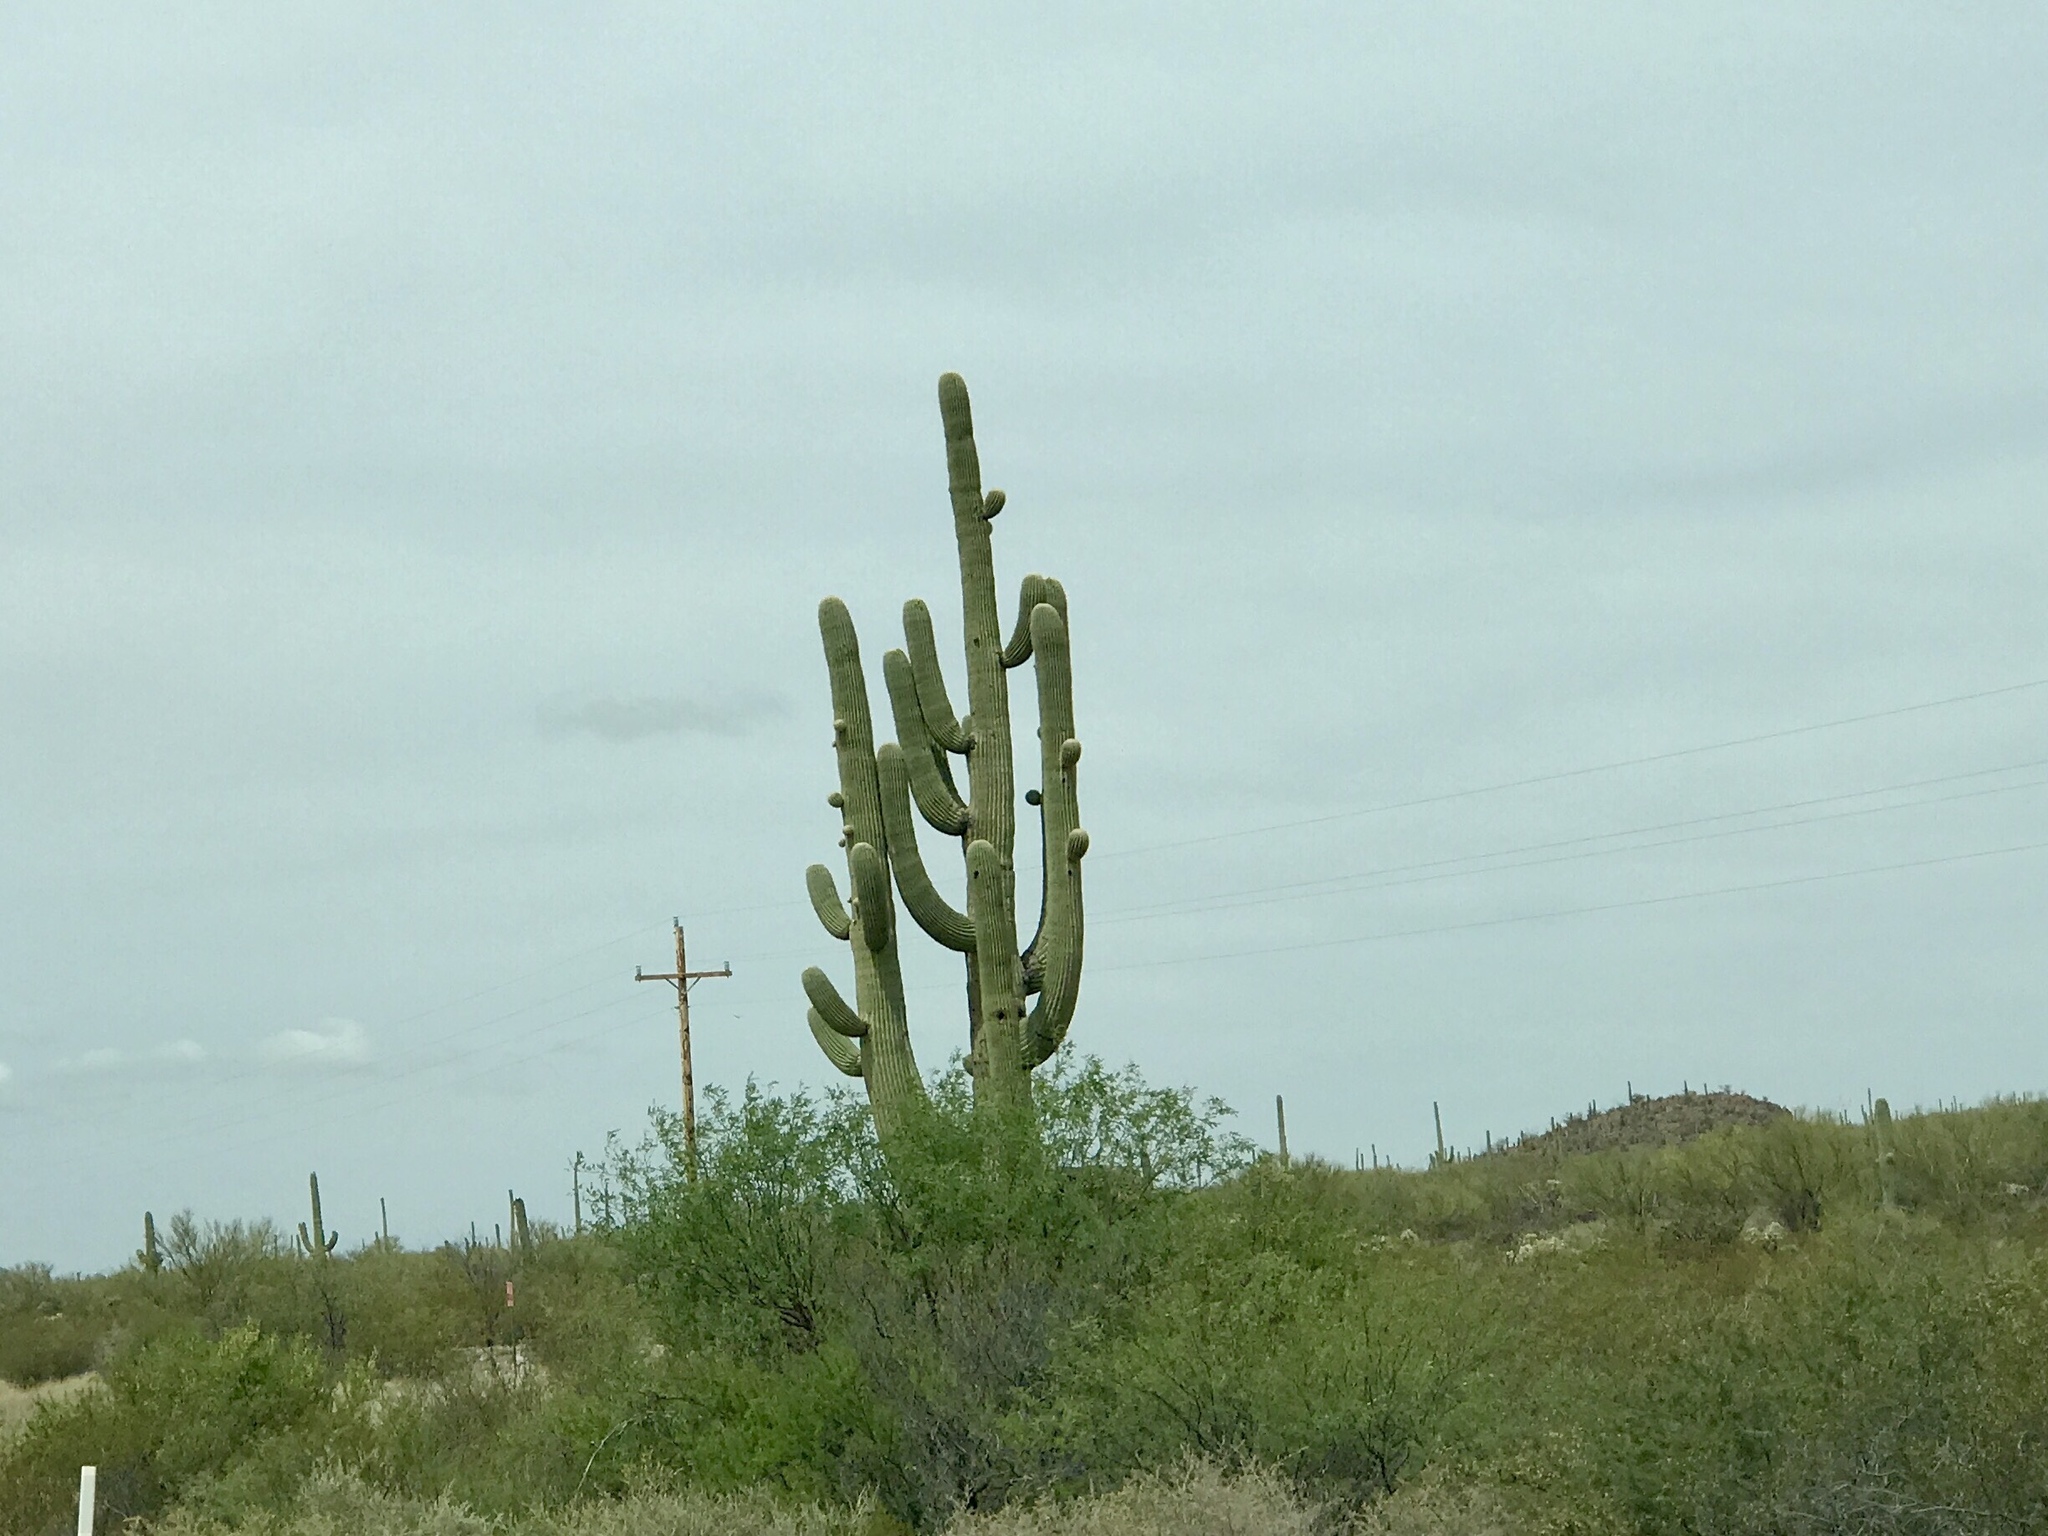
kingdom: Plantae
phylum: Tracheophyta
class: Magnoliopsida
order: Caryophyllales
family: Cactaceae
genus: Carnegiea
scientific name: Carnegiea gigantea
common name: Saguaro
